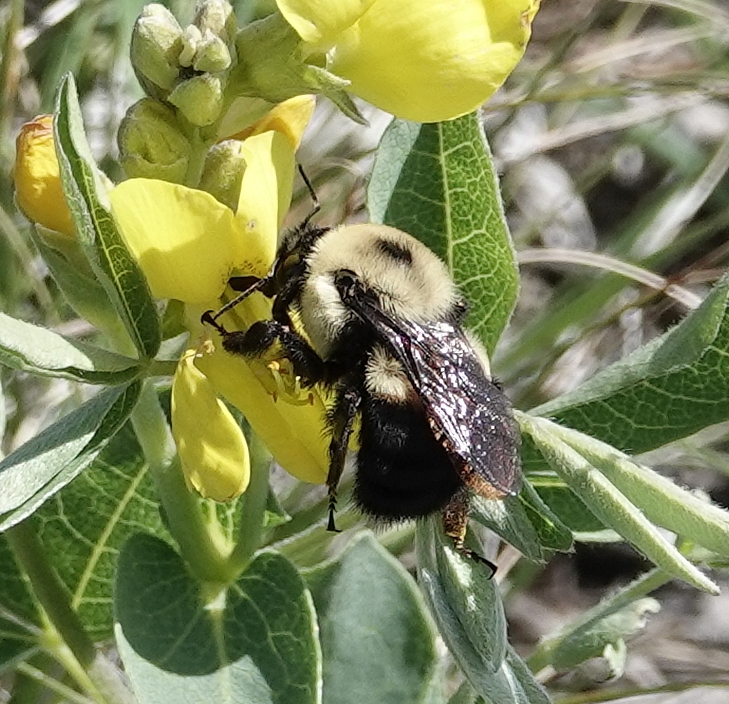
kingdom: Animalia
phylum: Arthropoda
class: Insecta
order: Hymenoptera
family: Apidae
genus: Bombus
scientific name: Bombus griseocollis
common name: Brown-belted bumble bee
